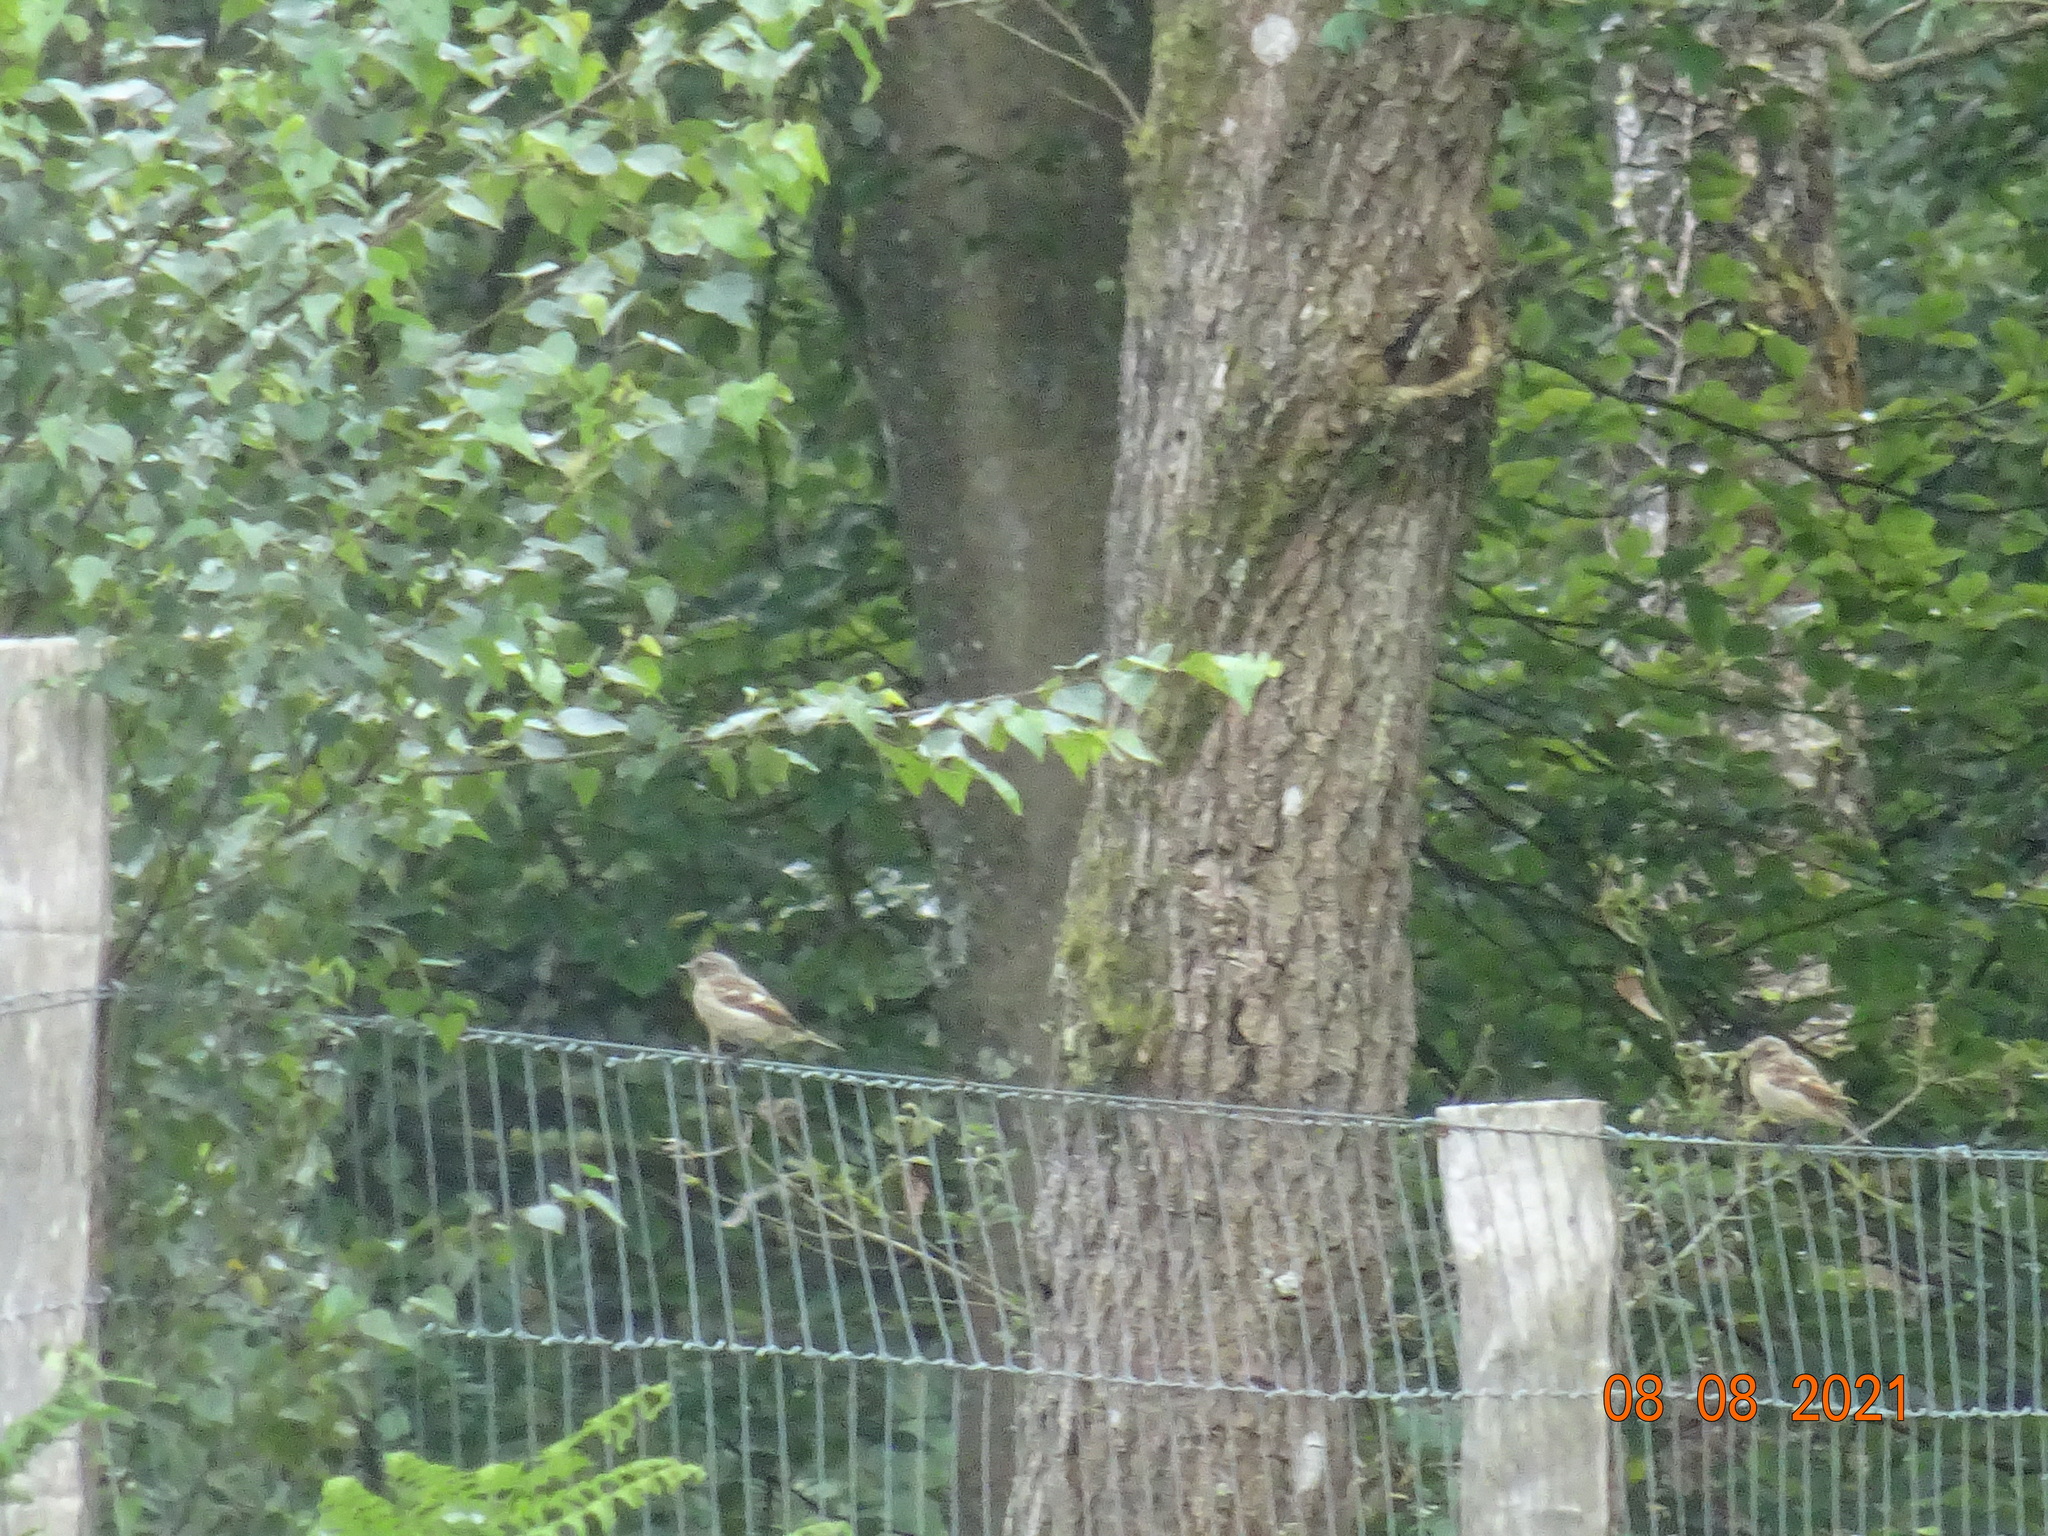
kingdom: Animalia
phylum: Chordata
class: Aves
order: Passeriformes
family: Muscicapidae
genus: Ficedula
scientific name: Ficedula hypoleuca
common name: European pied flycatcher
